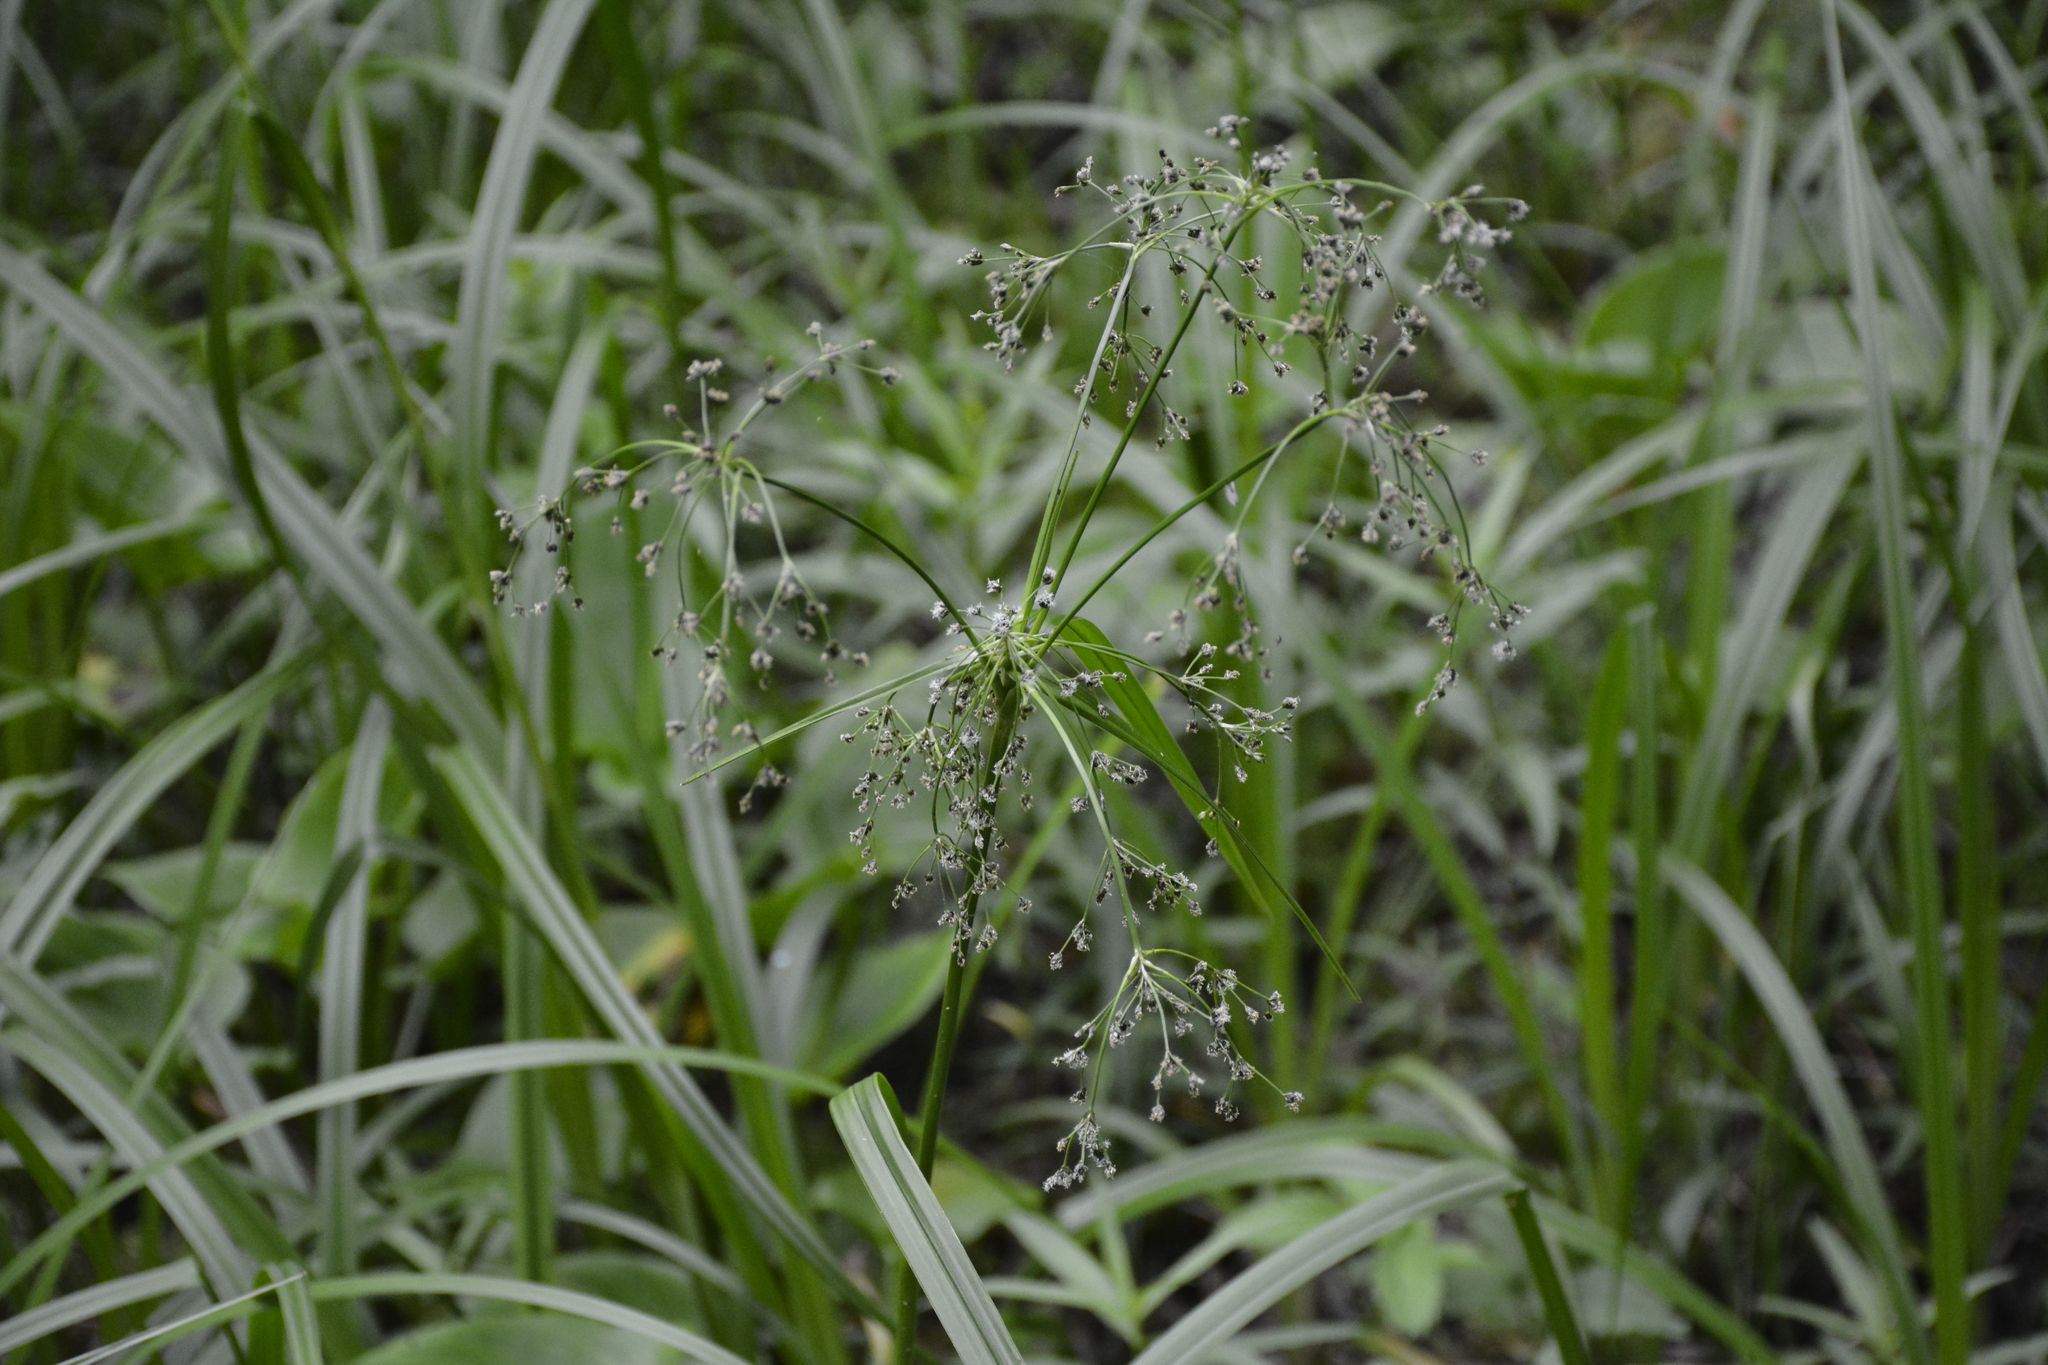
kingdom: Plantae
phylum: Tracheophyta
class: Liliopsida
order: Poales
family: Cyperaceae
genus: Scirpus
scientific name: Scirpus sylvaticus
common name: Wood club-rush
